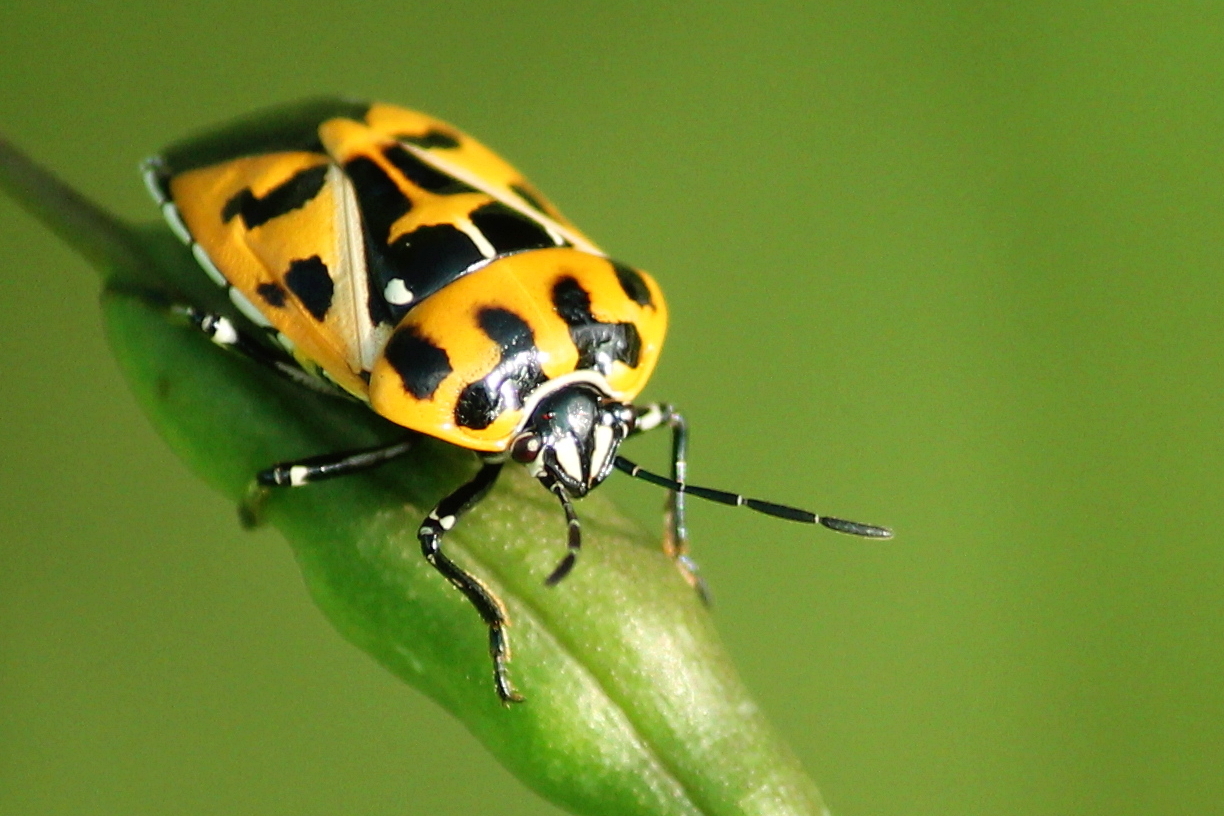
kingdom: Animalia
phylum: Arthropoda
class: Insecta
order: Hemiptera
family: Pentatomidae
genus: Murgantia
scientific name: Murgantia histrionica
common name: Harlequin bug
